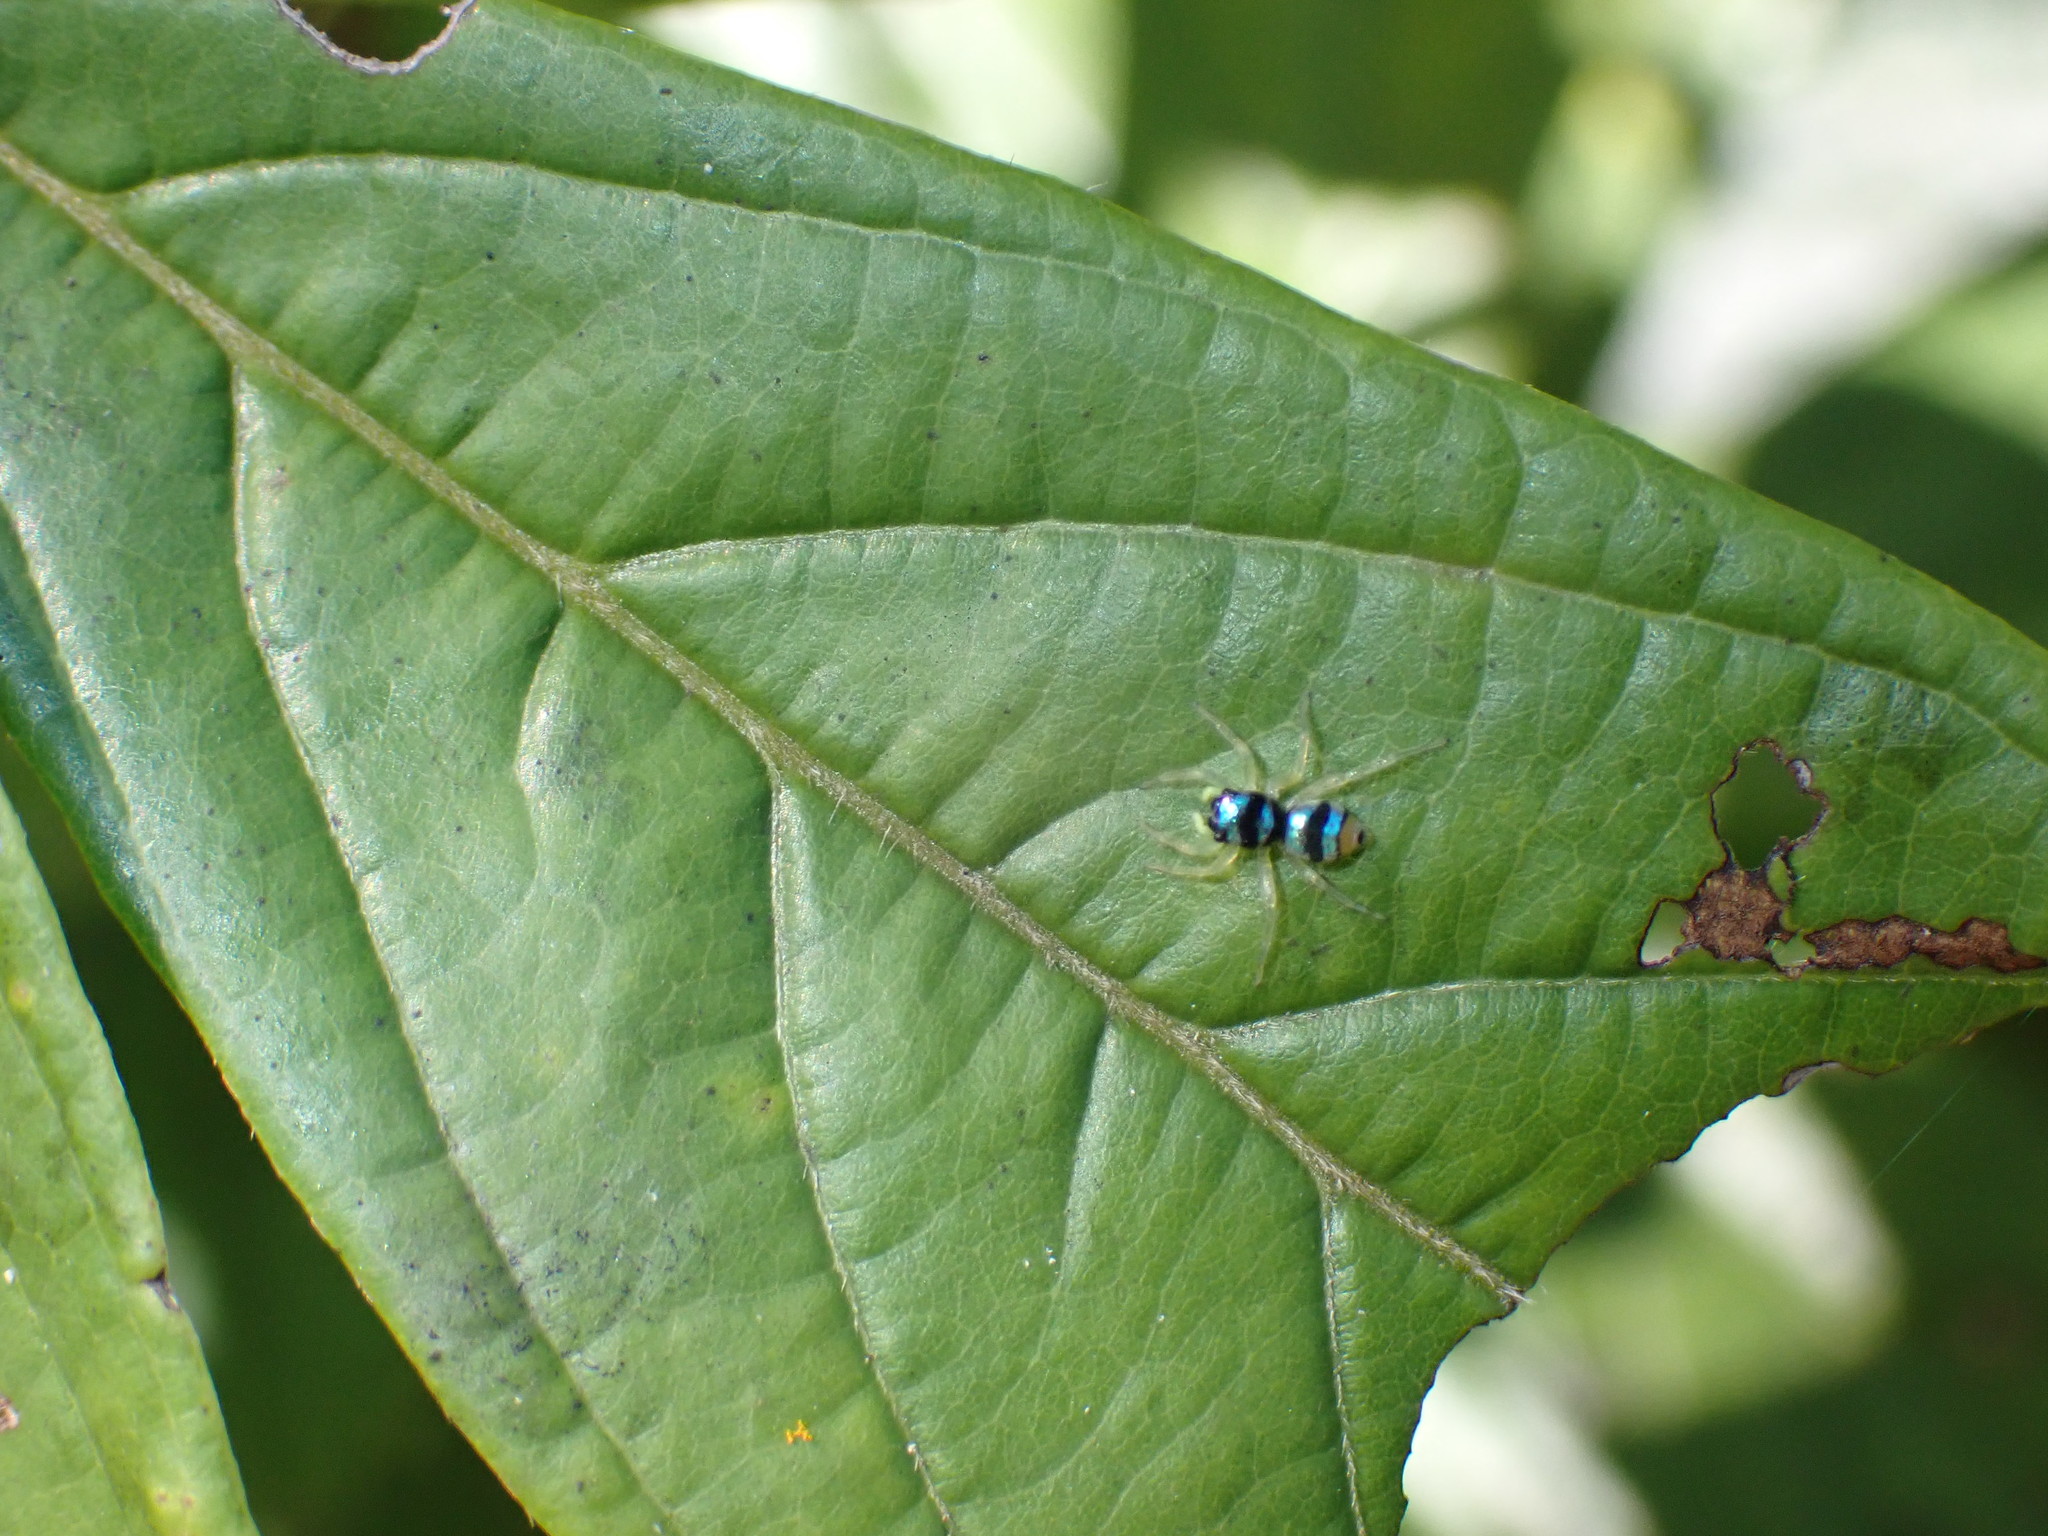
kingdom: Animalia
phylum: Arthropoda
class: Arachnida
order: Araneae
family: Salticidae
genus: Phintella
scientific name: Phintella vittata
